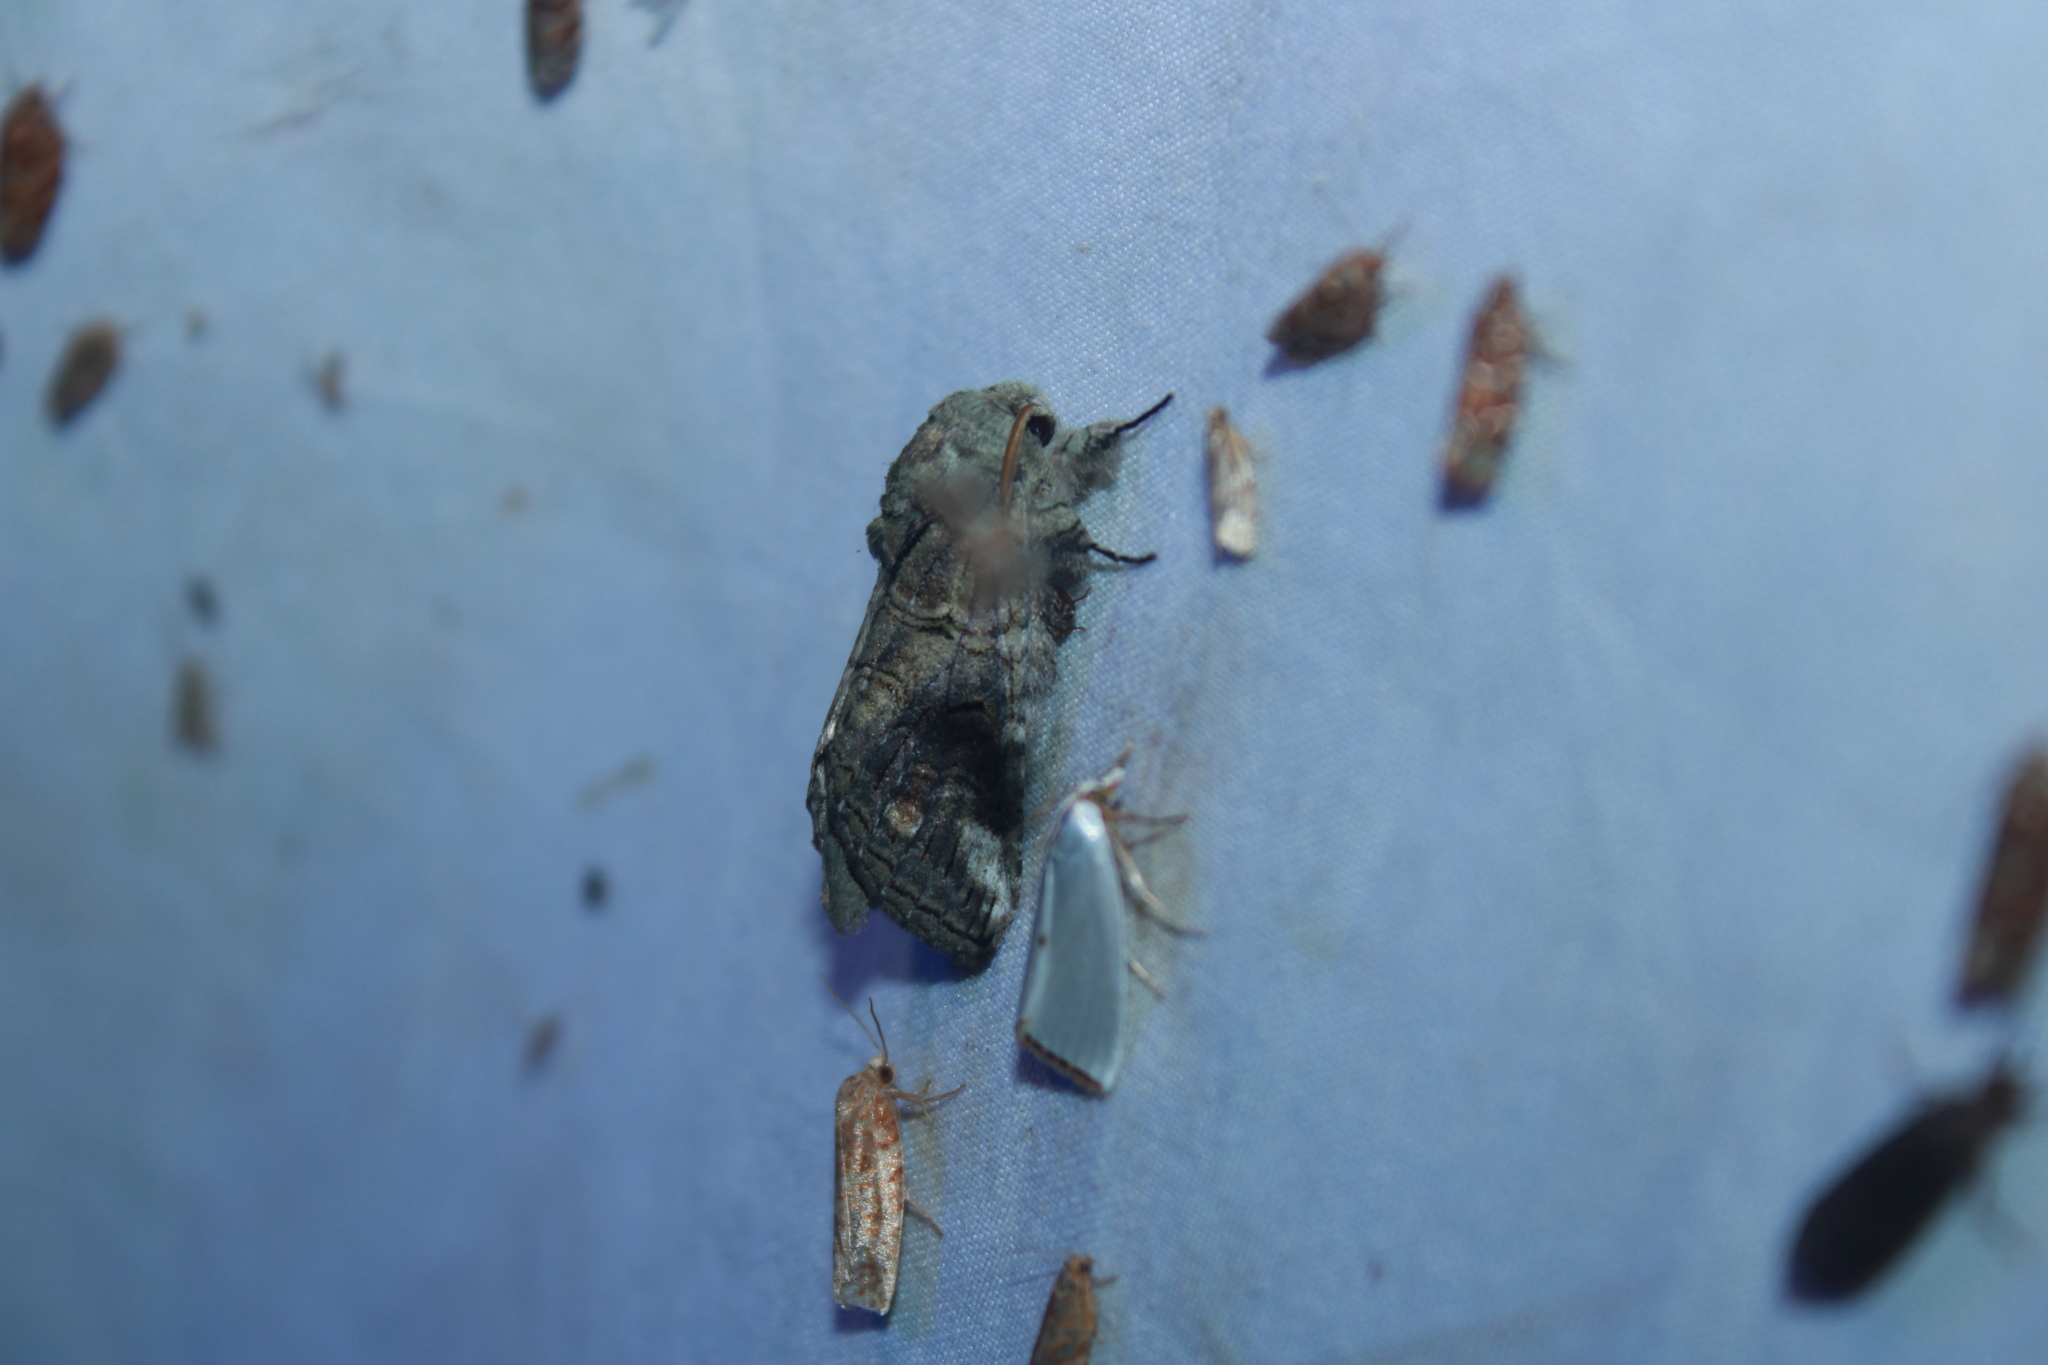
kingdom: Animalia
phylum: Arthropoda
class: Insecta
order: Lepidoptera
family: Notodontidae
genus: Heterocampa
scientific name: Heterocampa obliqua
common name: Oblique heterocampa
